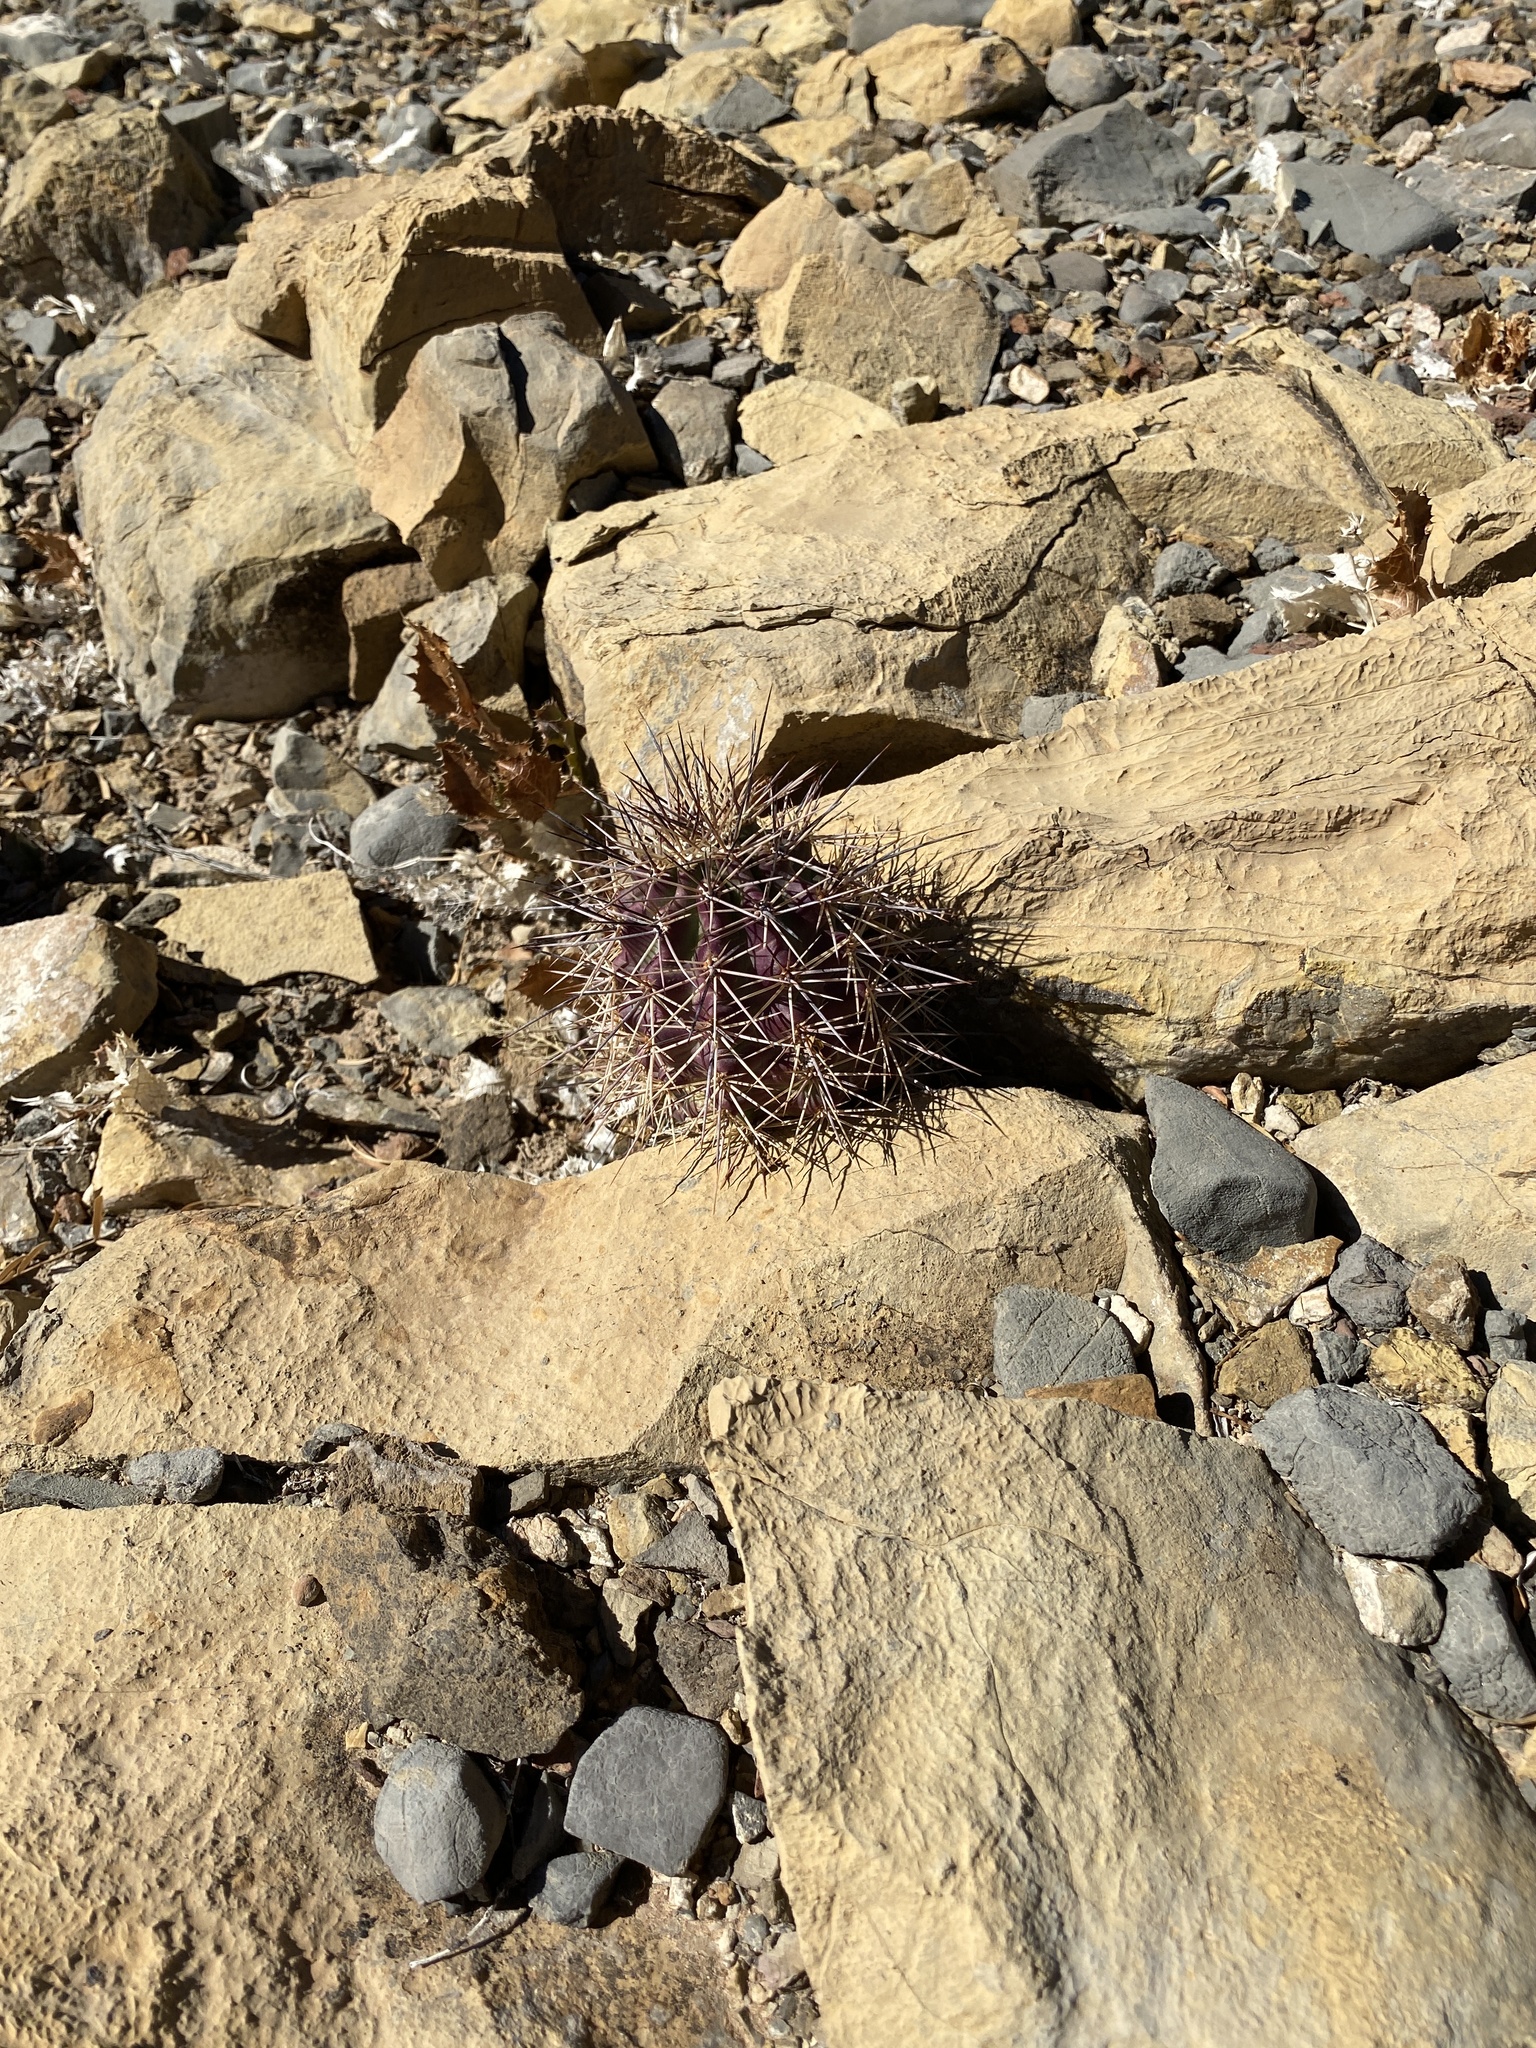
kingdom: Plantae
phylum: Tracheophyta
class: Magnoliopsida
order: Caryophyllales
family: Cactaceae
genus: Echinocereus
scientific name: Echinocereus coccineus
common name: Scarlet hedgehog cactus
